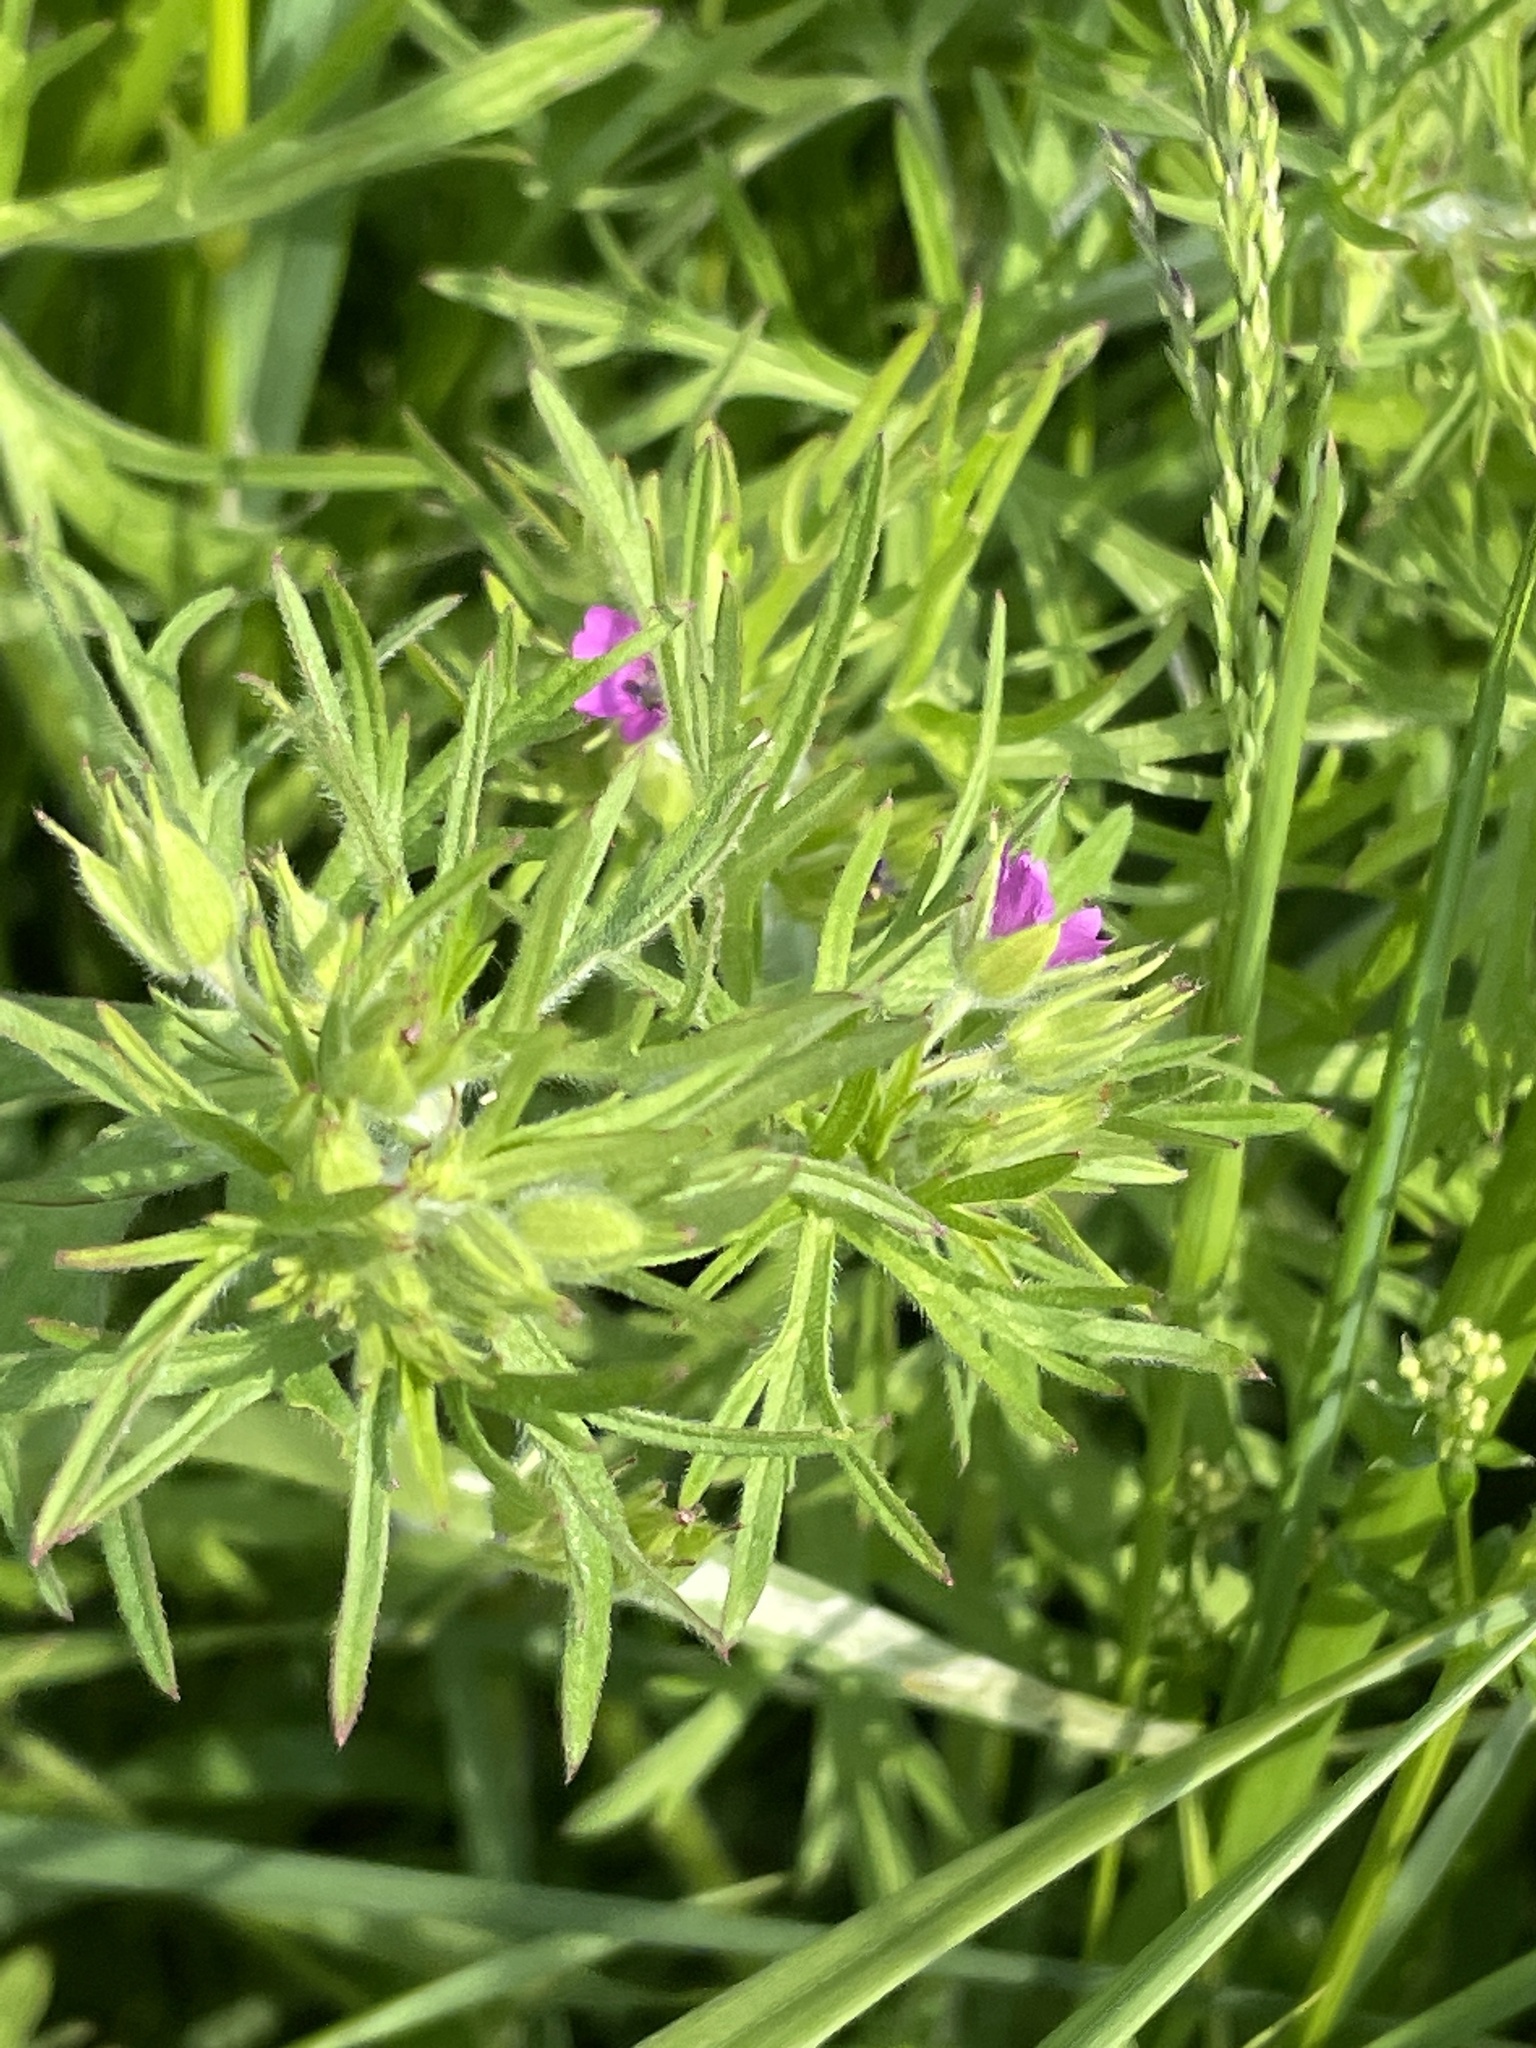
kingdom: Plantae
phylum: Tracheophyta
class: Magnoliopsida
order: Geraniales
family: Geraniaceae
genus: Geranium
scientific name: Geranium dissectum
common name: Cut-leaved crane's-bill
